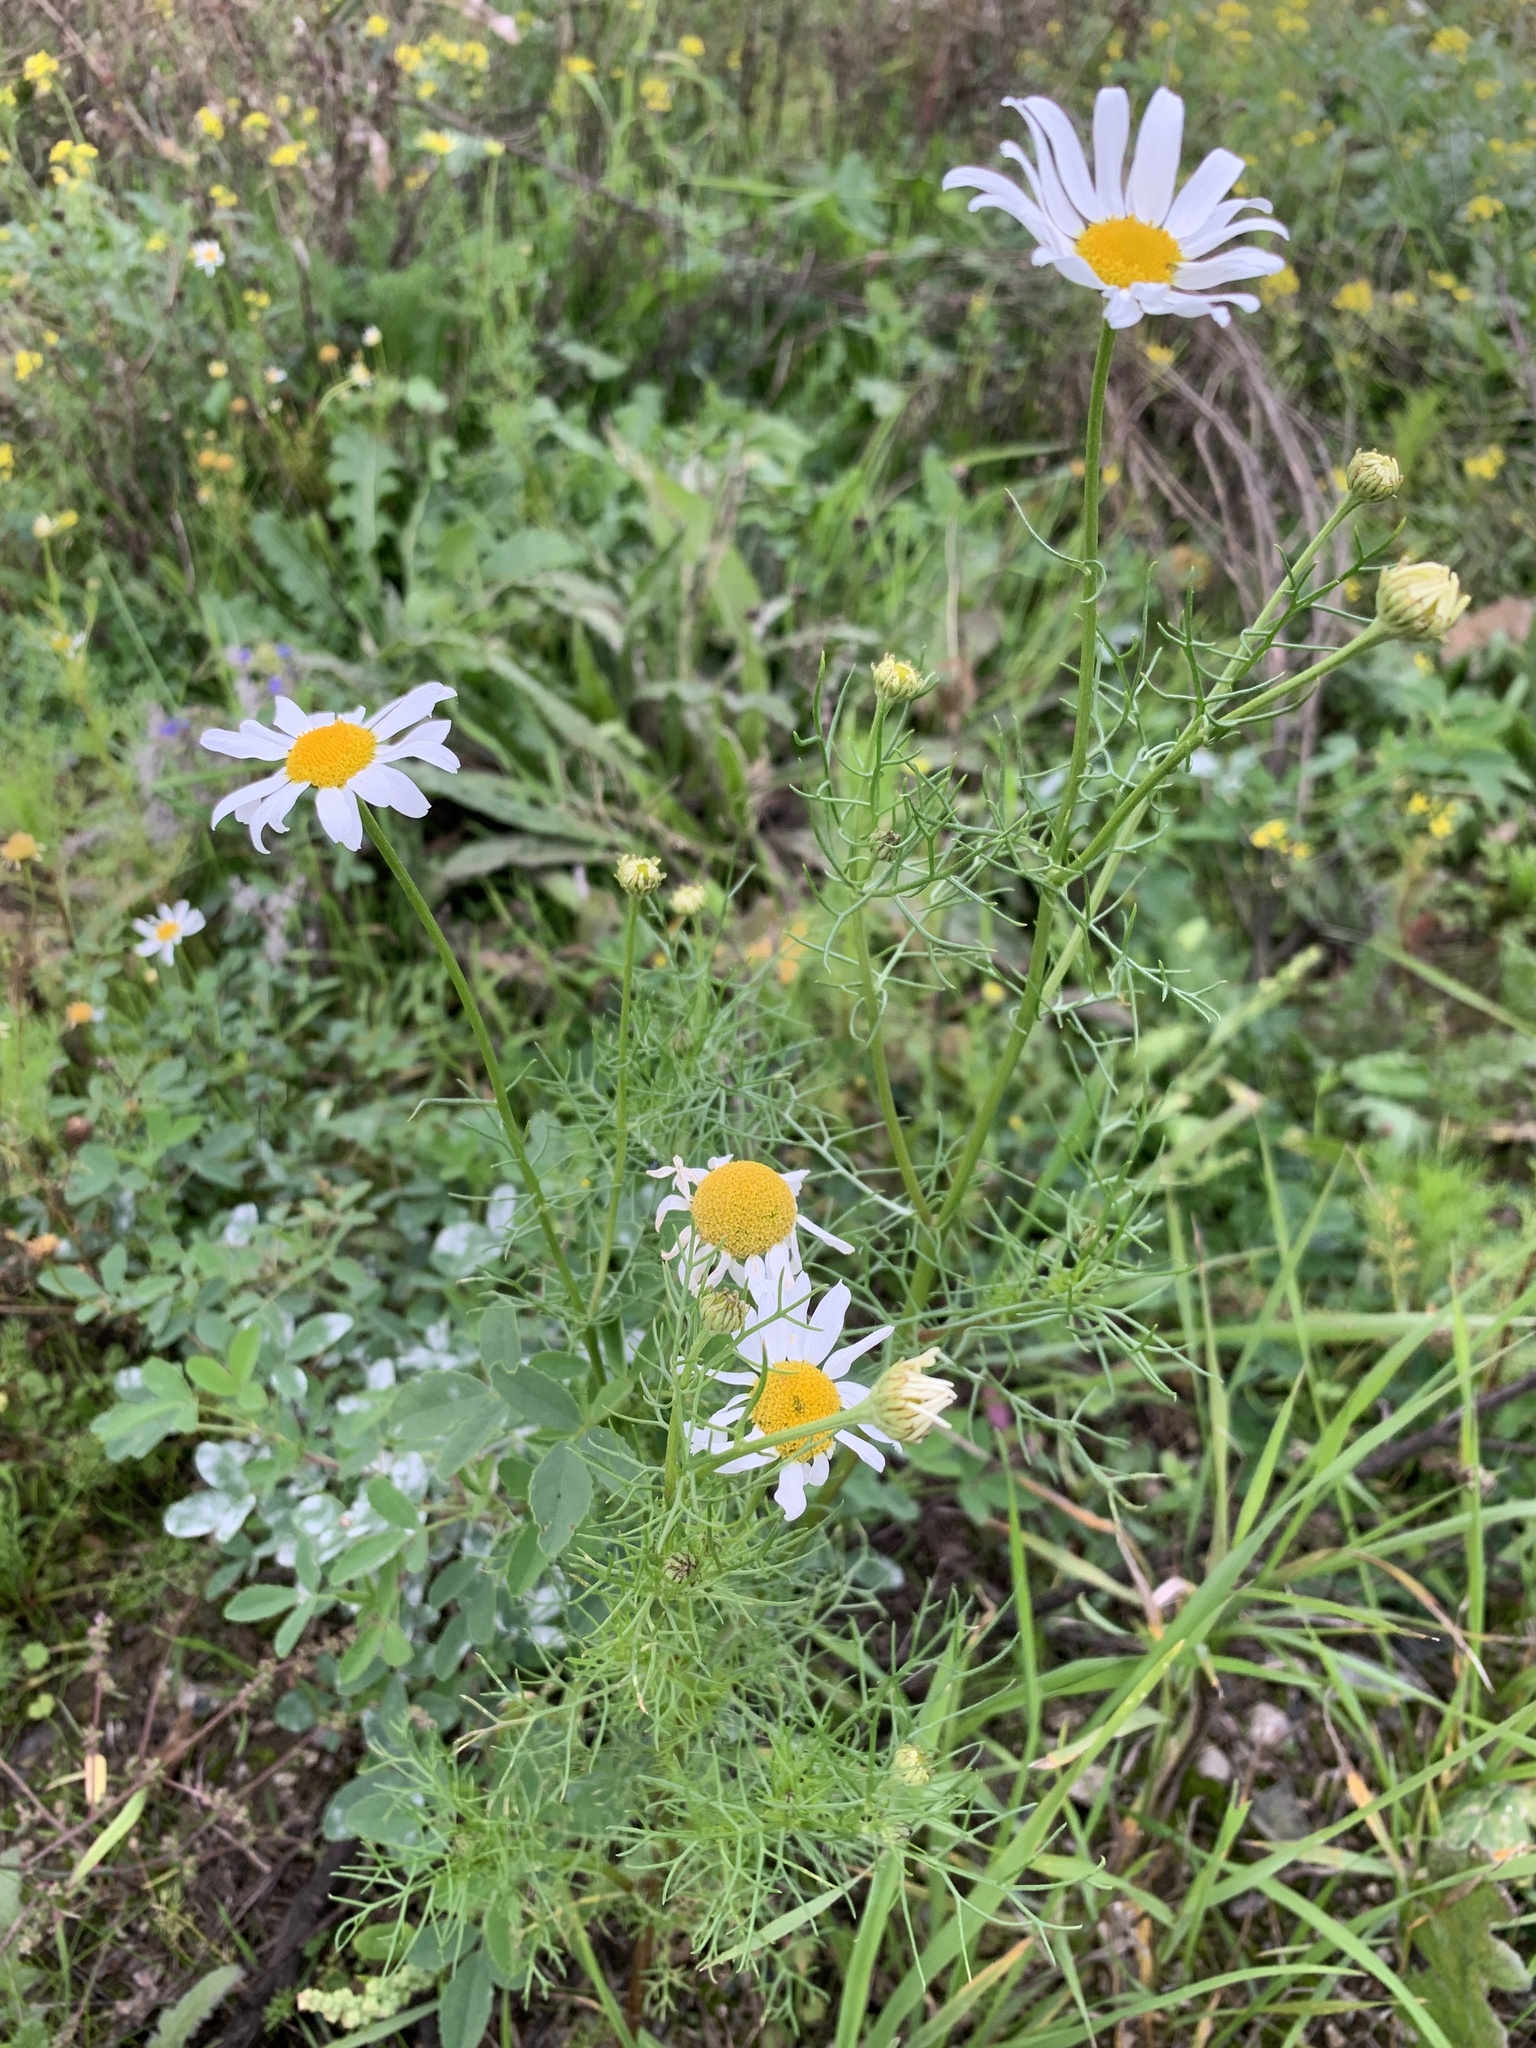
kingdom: Plantae
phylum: Tracheophyta
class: Magnoliopsida
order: Asterales
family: Asteraceae
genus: Tripleurospermum
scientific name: Tripleurospermum inodorum
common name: Scentless mayweed
